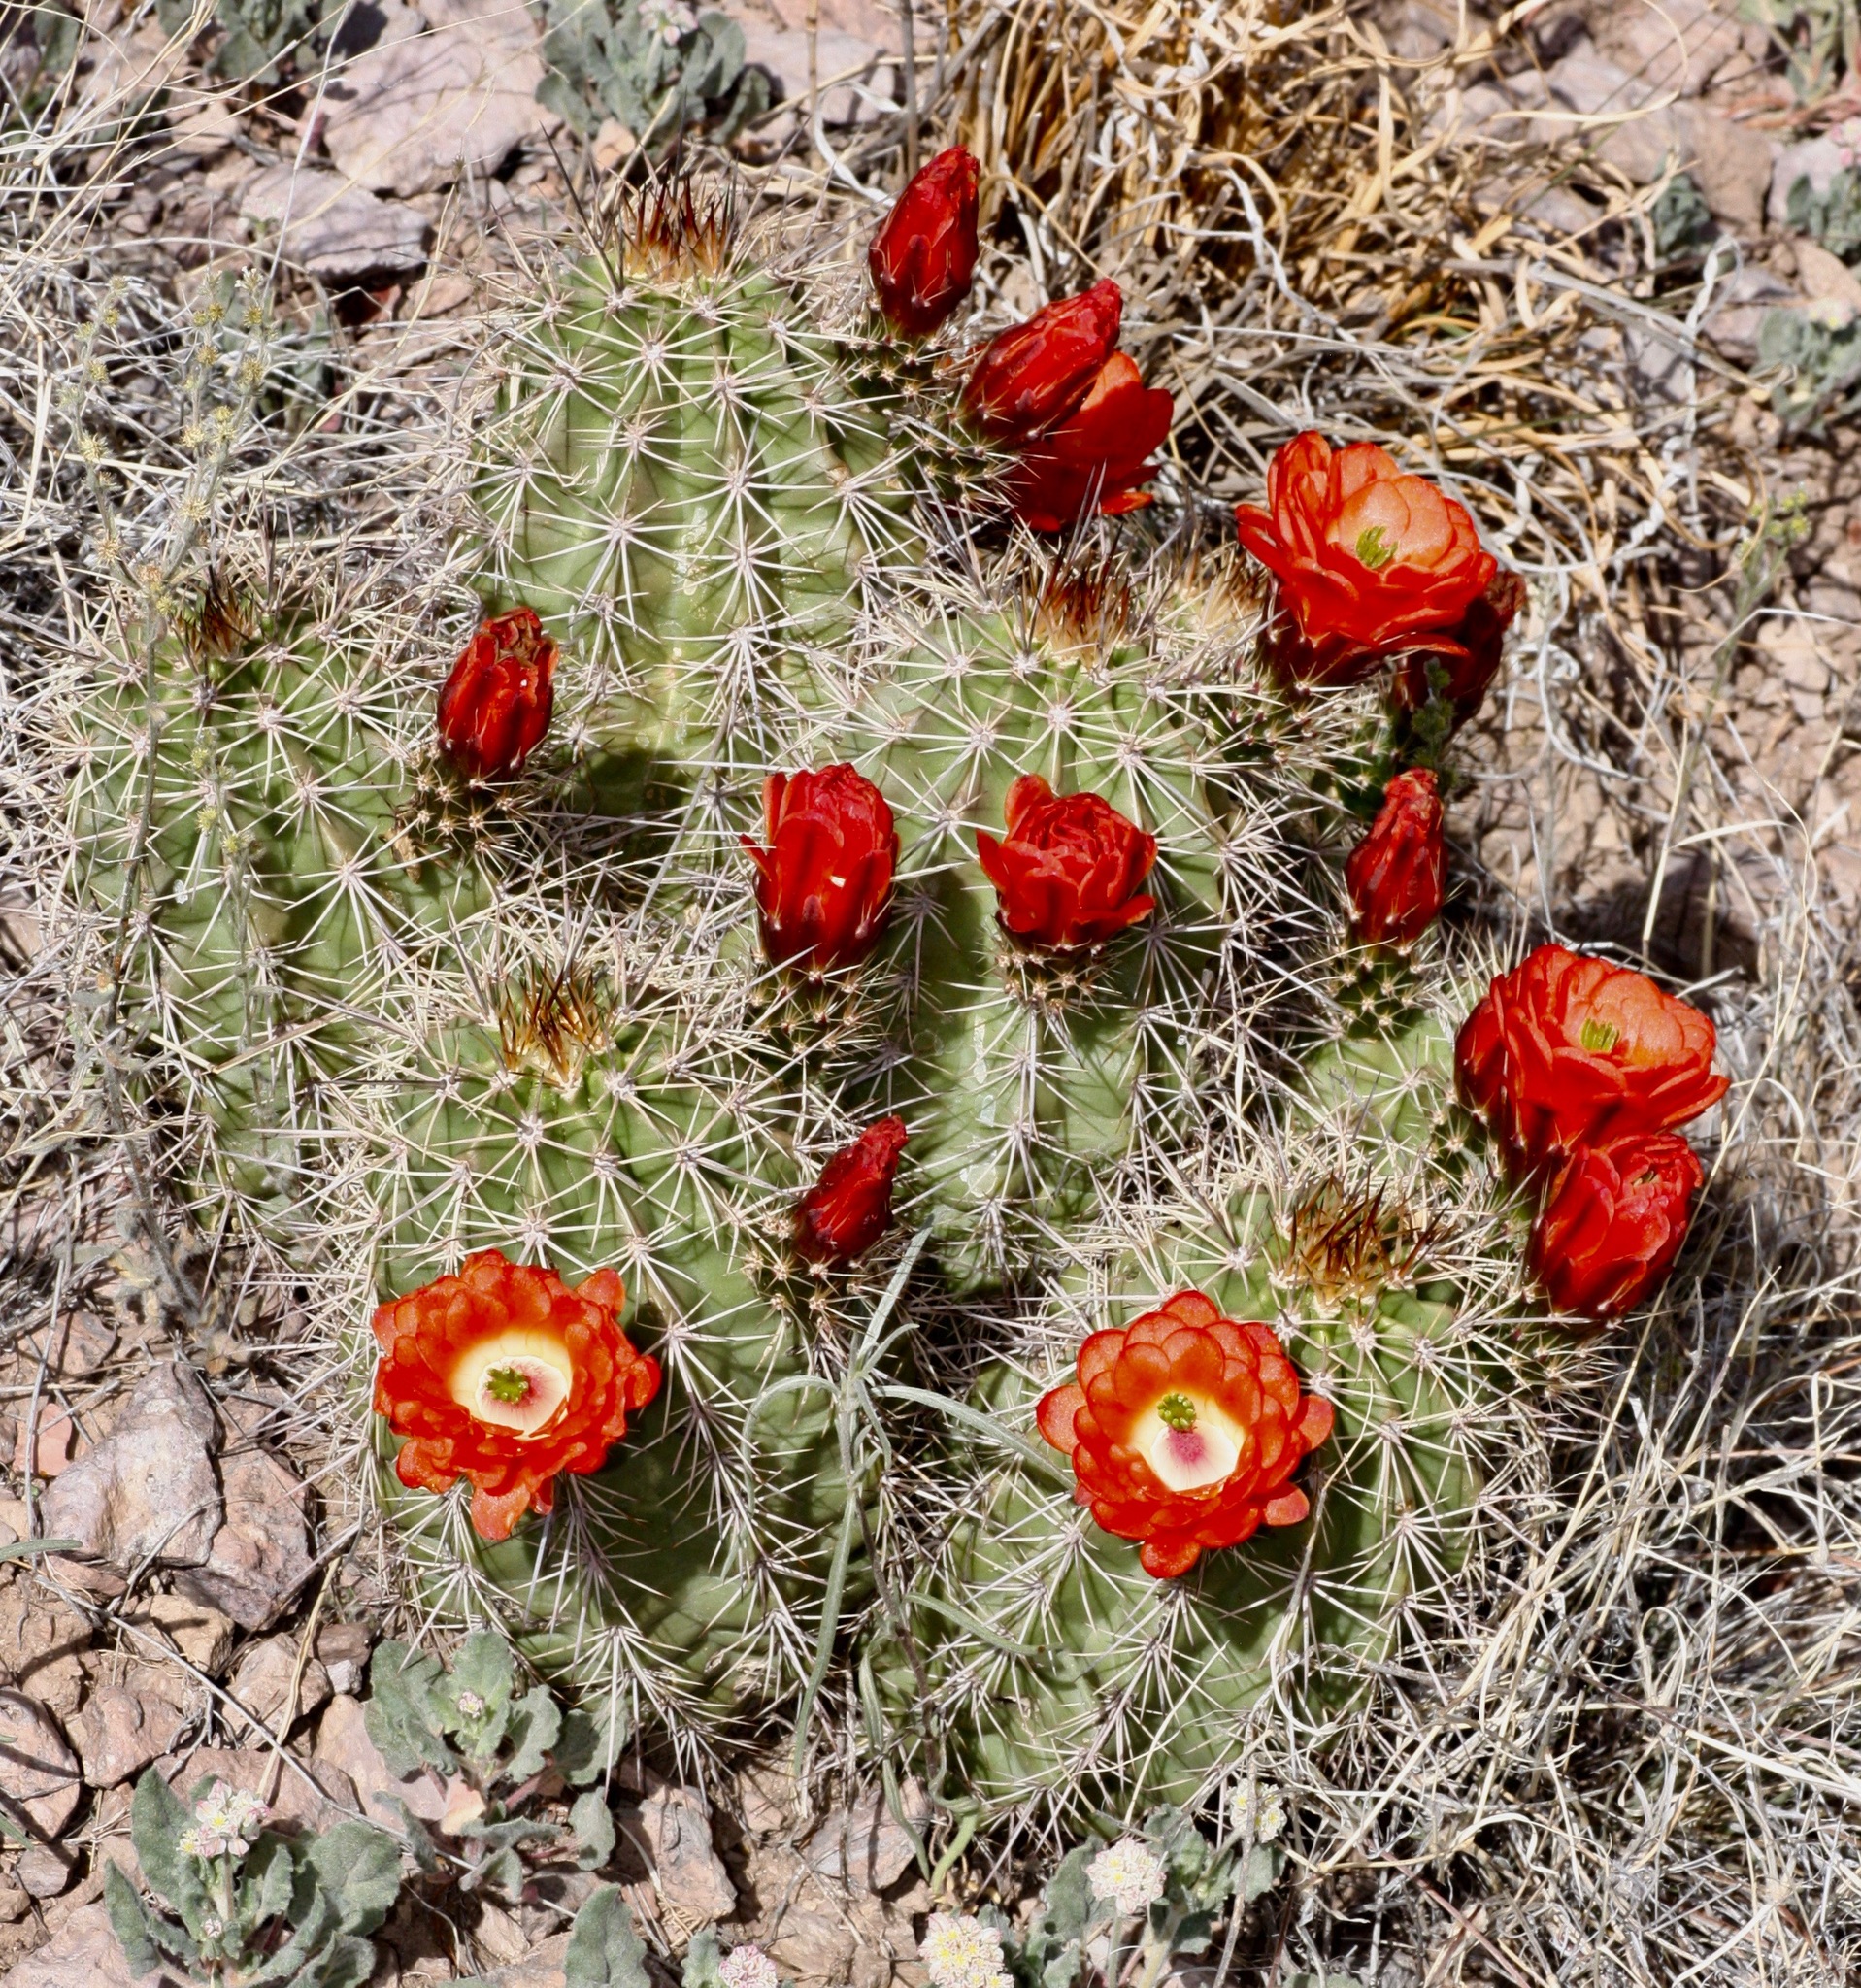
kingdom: Plantae
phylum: Tracheophyta
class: Magnoliopsida
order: Caryophyllales
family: Cactaceae
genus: Echinocereus
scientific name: Echinocereus coccineus
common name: Scarlet hedgehog cactus
